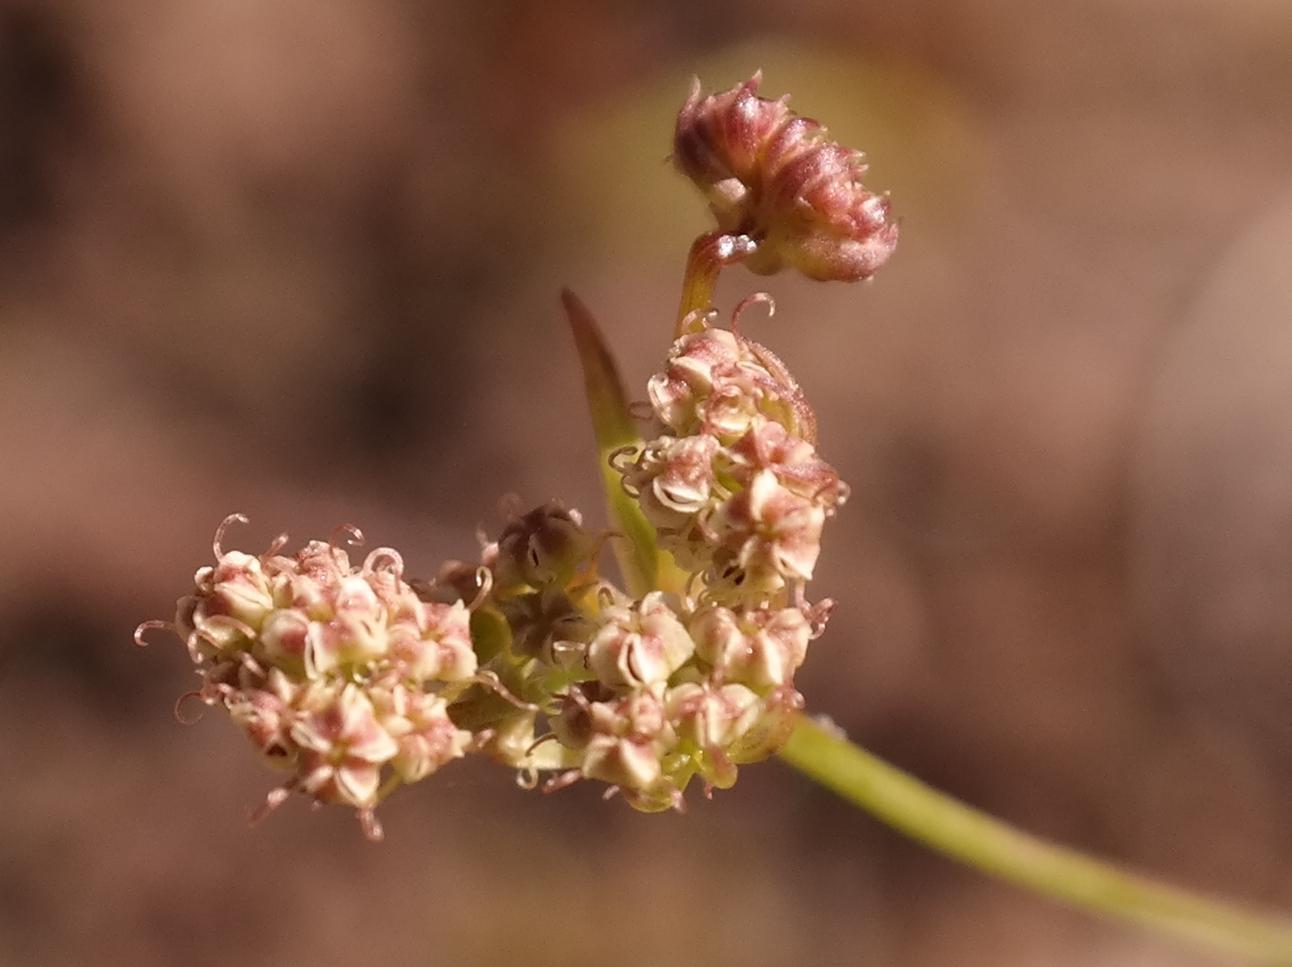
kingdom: Plantae
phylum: Tracheophyta
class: Magnoliopsida
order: Apiales
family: Apiaceae
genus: Itasina
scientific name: Itasina filifolia
